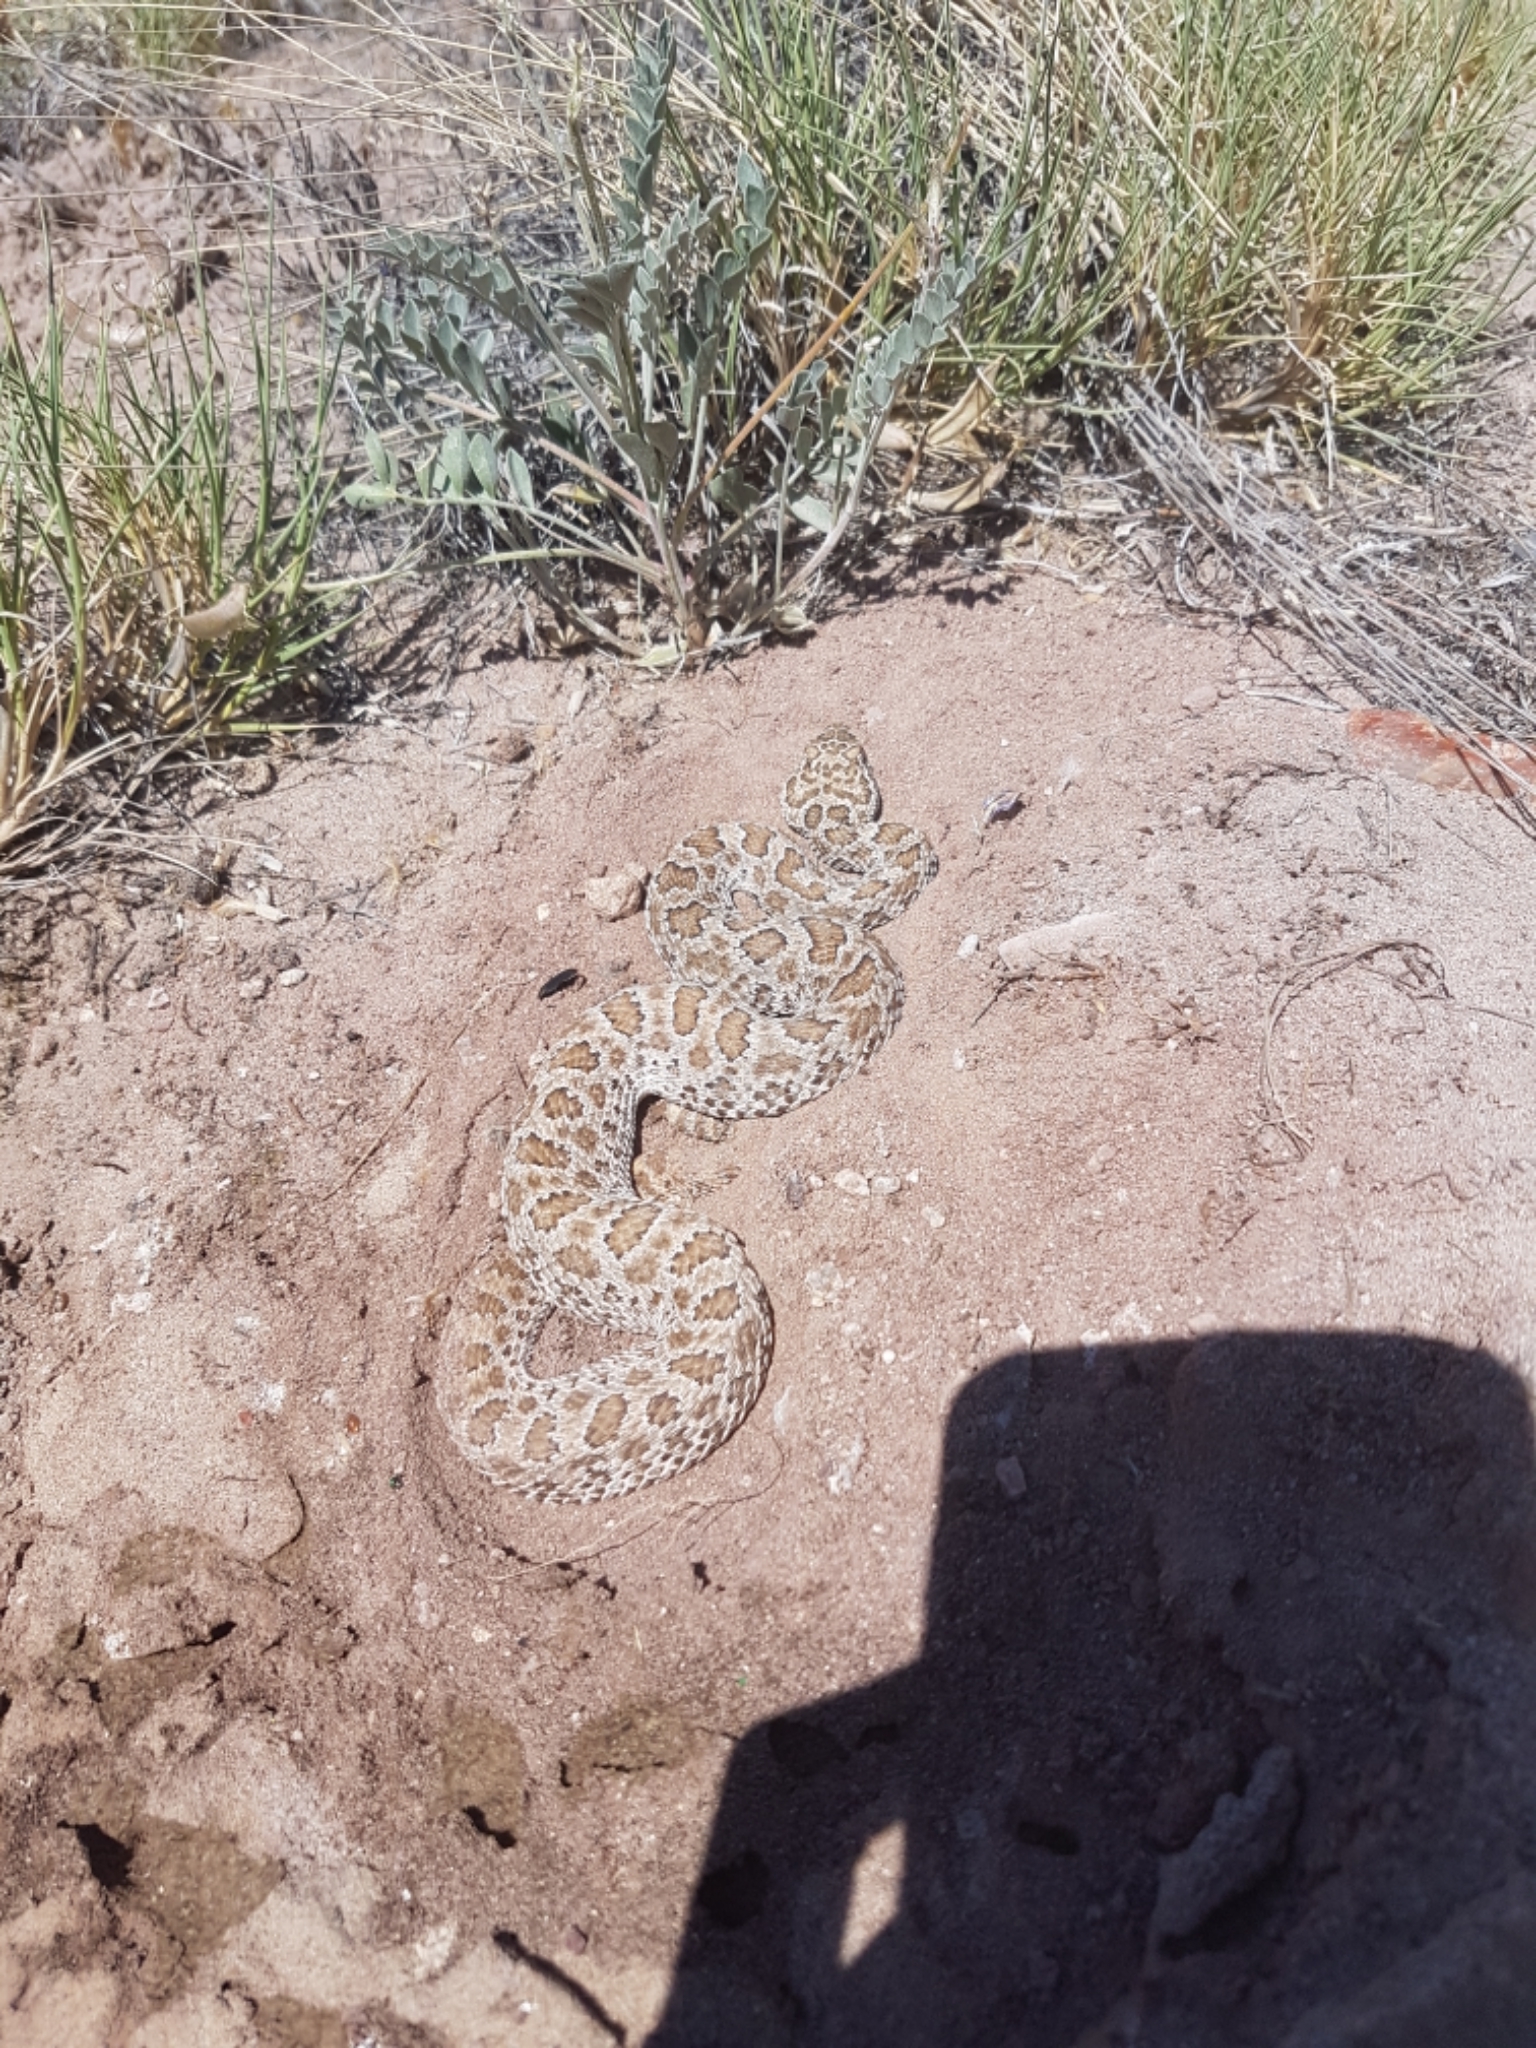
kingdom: Animalia
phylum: Chordata
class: Squamata
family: Viperidae
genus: Crotalus
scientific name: Crotalus viridis
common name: Prairie rattlesnake
